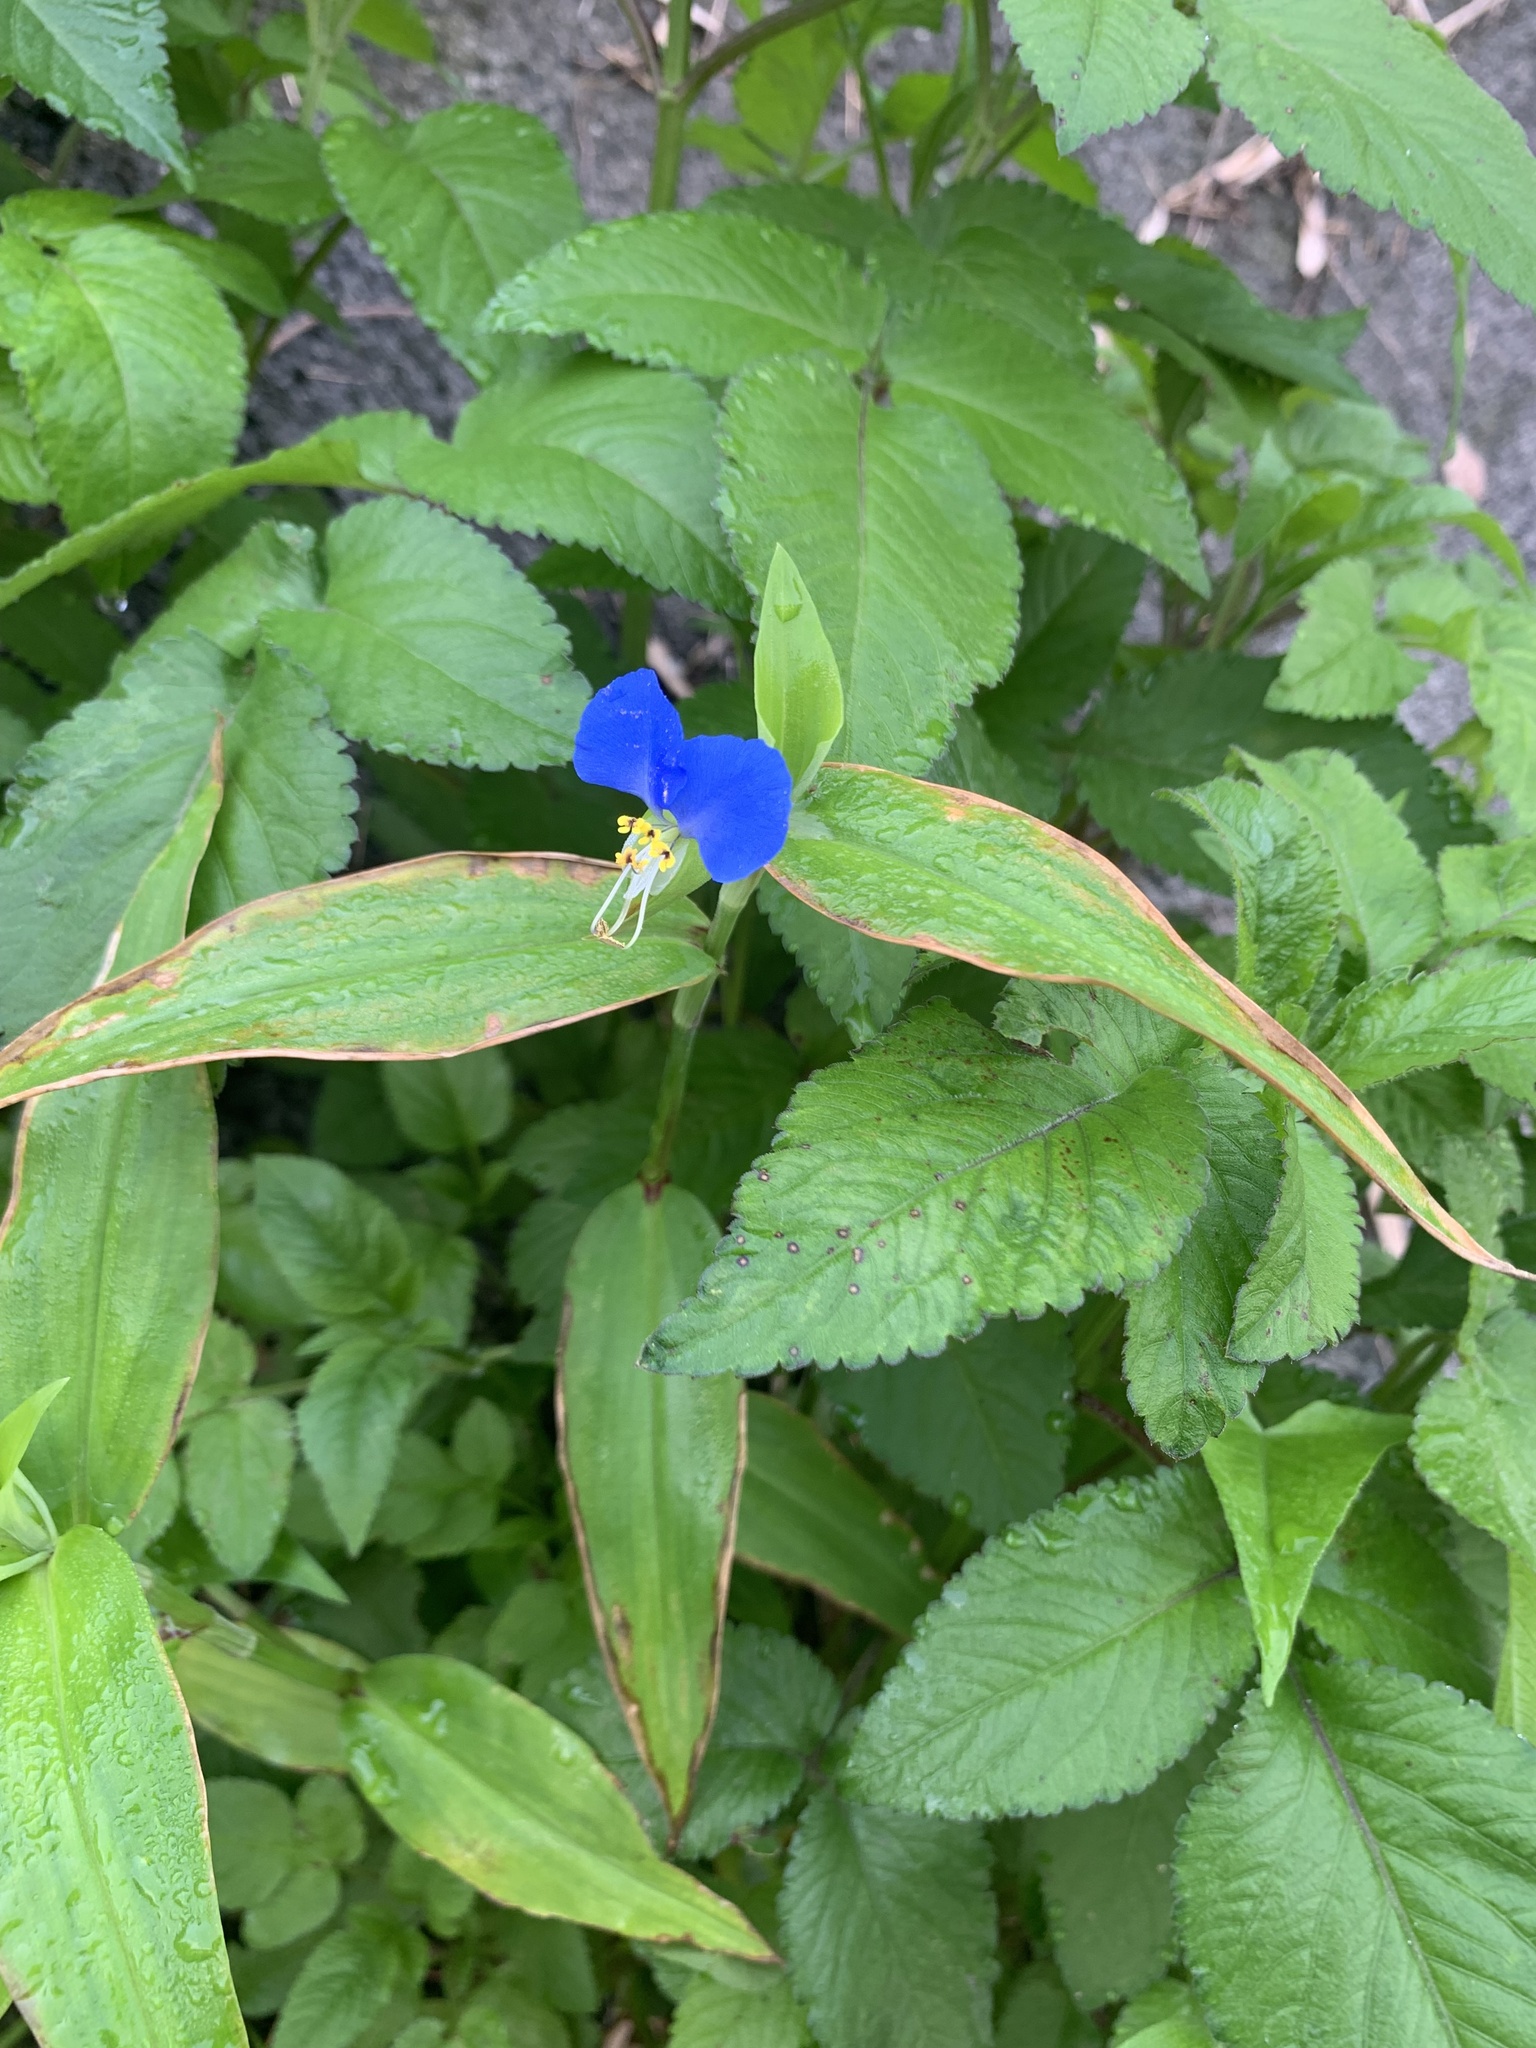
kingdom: Plantae
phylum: Tracheophyta
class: Liliopsida
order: Commelinales
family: Commelinaceae
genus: Commelina
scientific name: Commelina communis
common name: Asiatic dayflower
